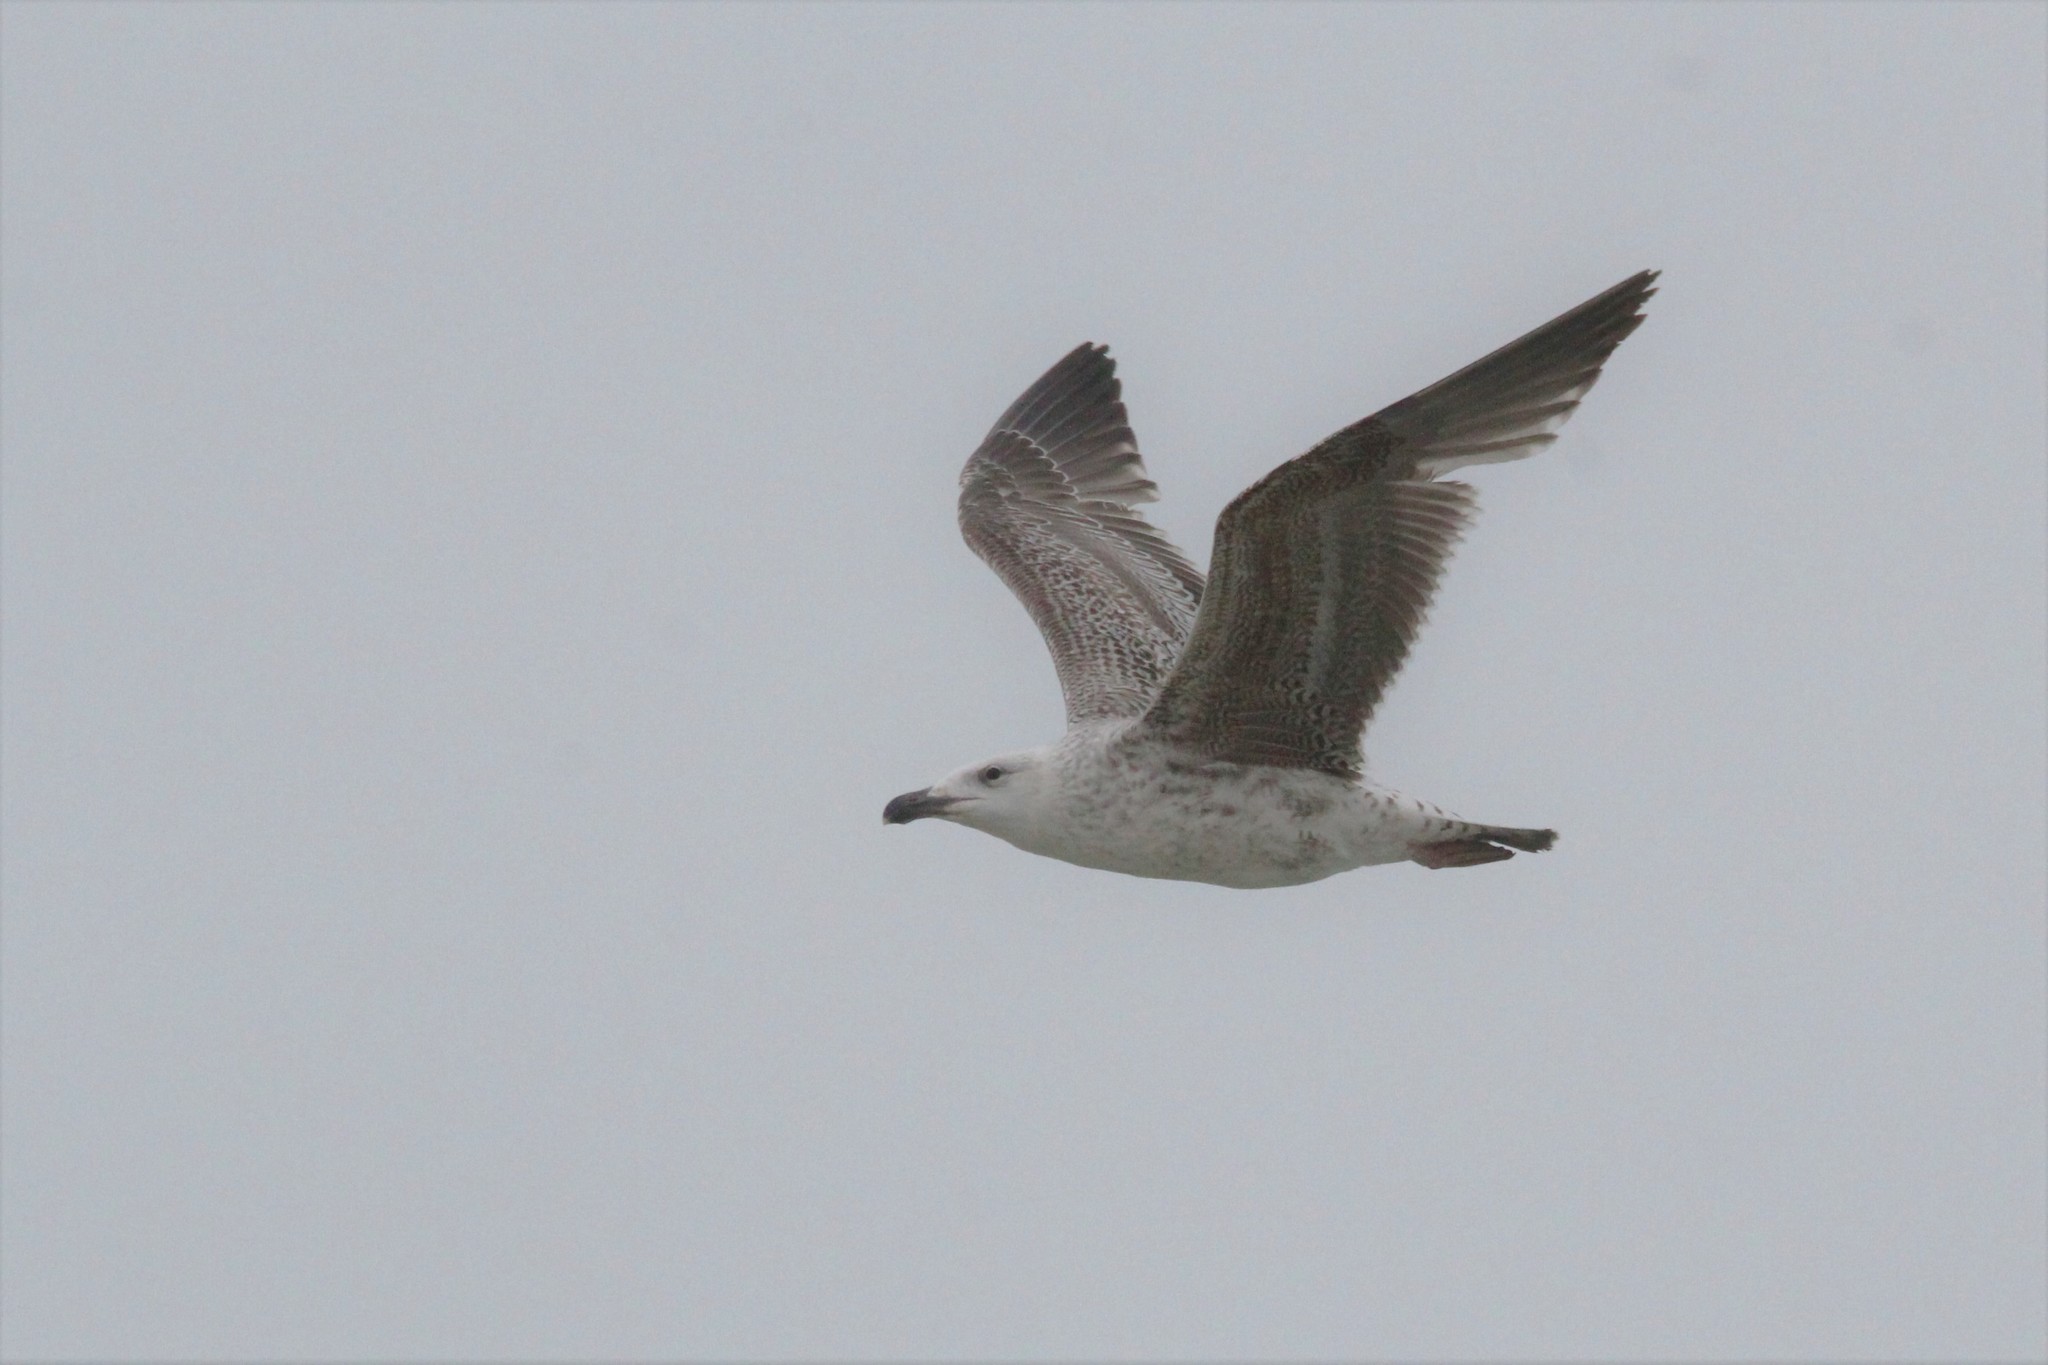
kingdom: Animalia
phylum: Chordata
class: Aves
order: Charadriiformes
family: Laridae
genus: Larus
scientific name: Larus marinus
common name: Great black-backed gull
